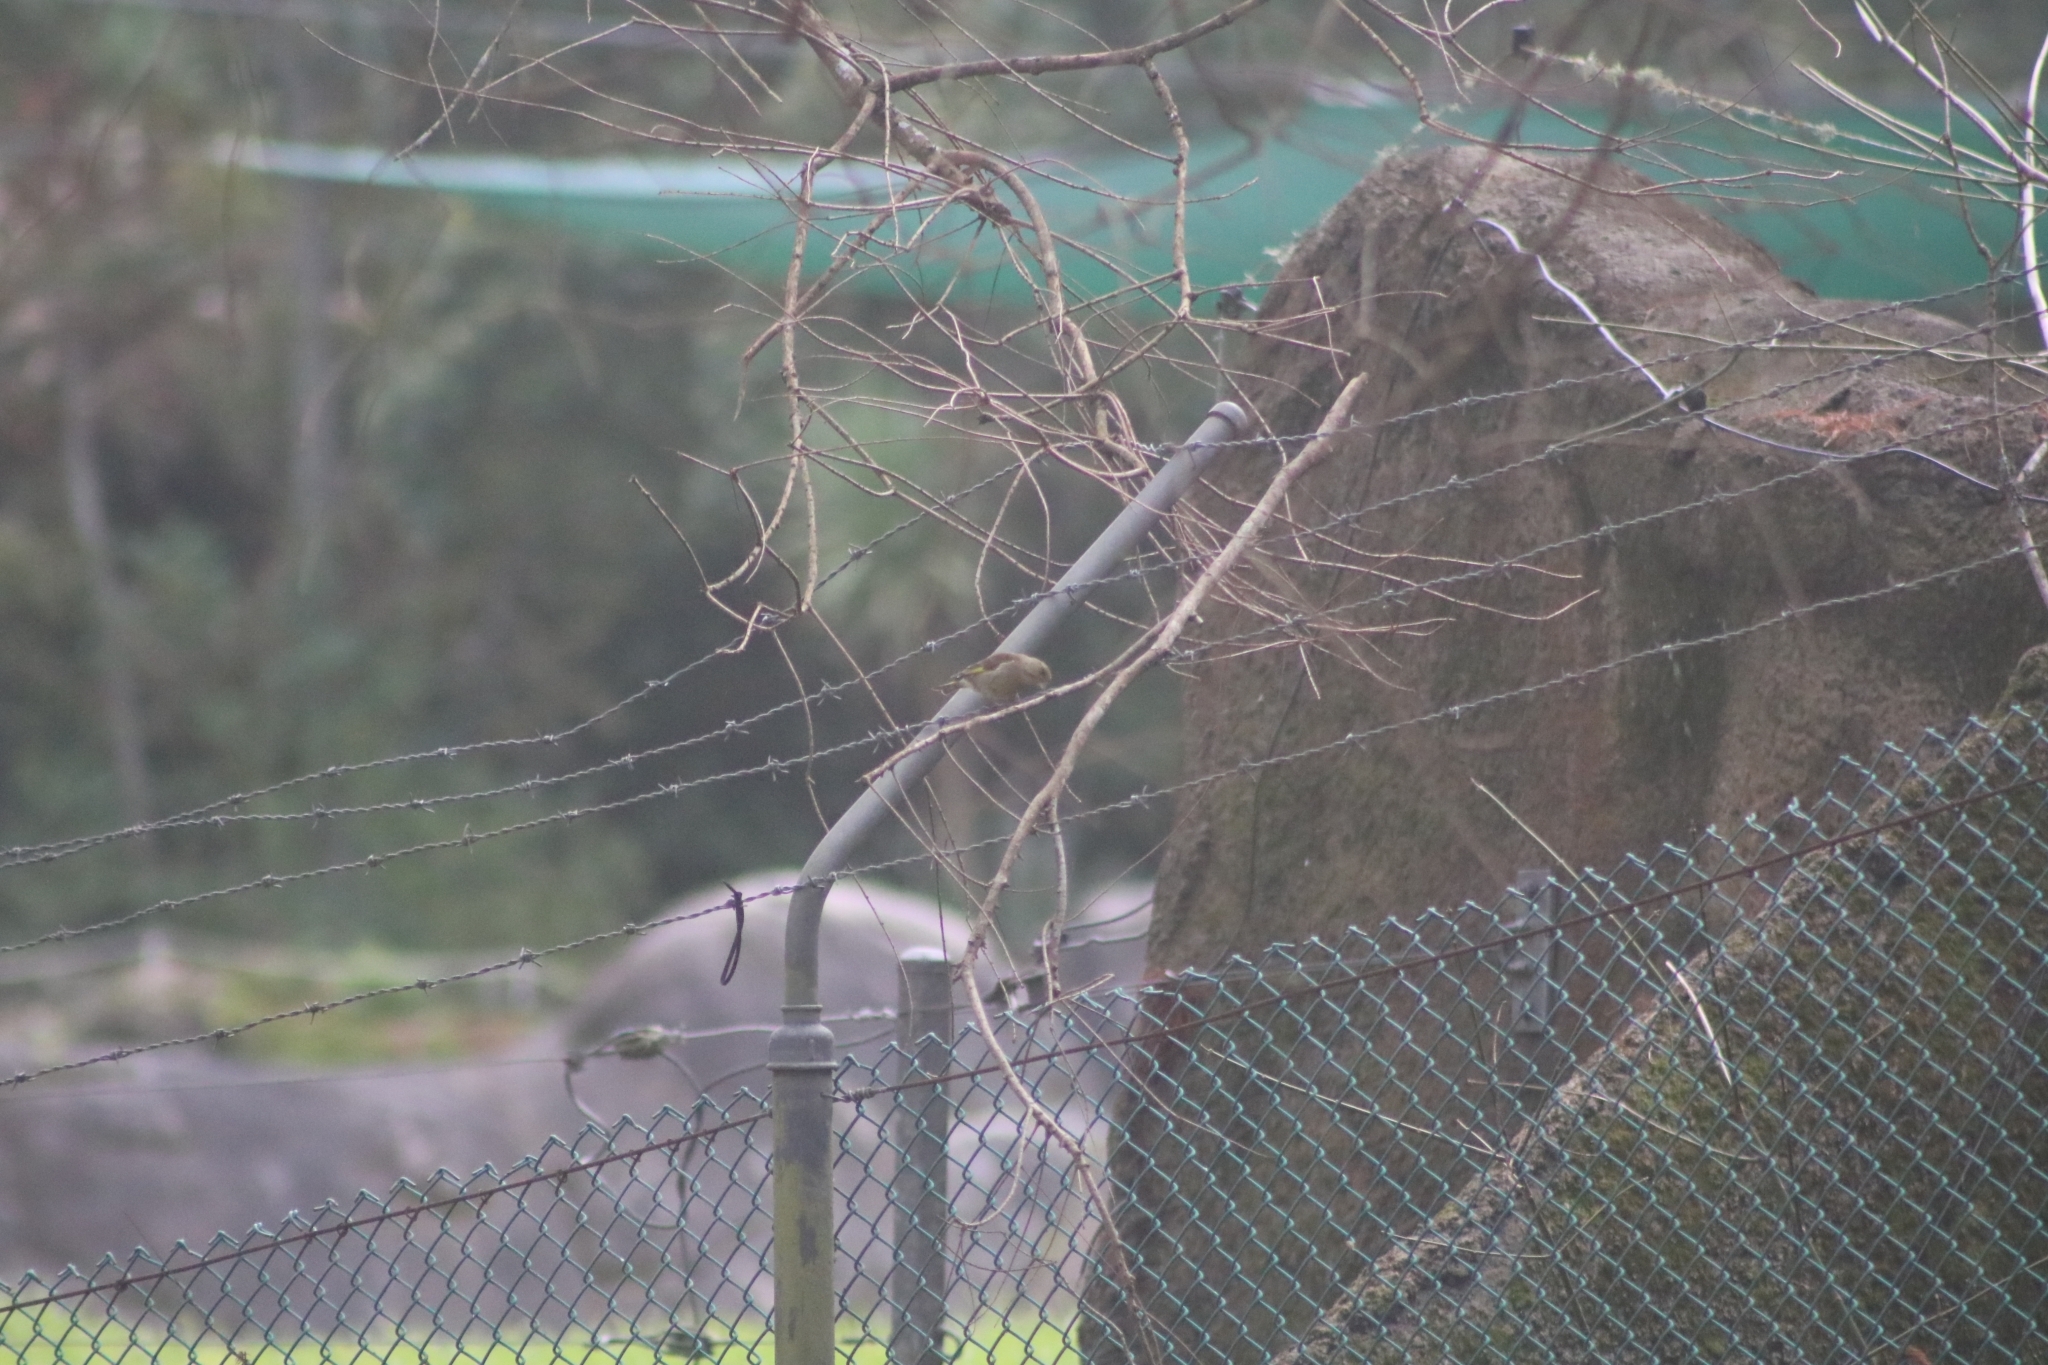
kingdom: Plantae
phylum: Tracheophyta
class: Liliopsida
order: Poales
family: Poaceae
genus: Chloris
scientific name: Chloris chloris
